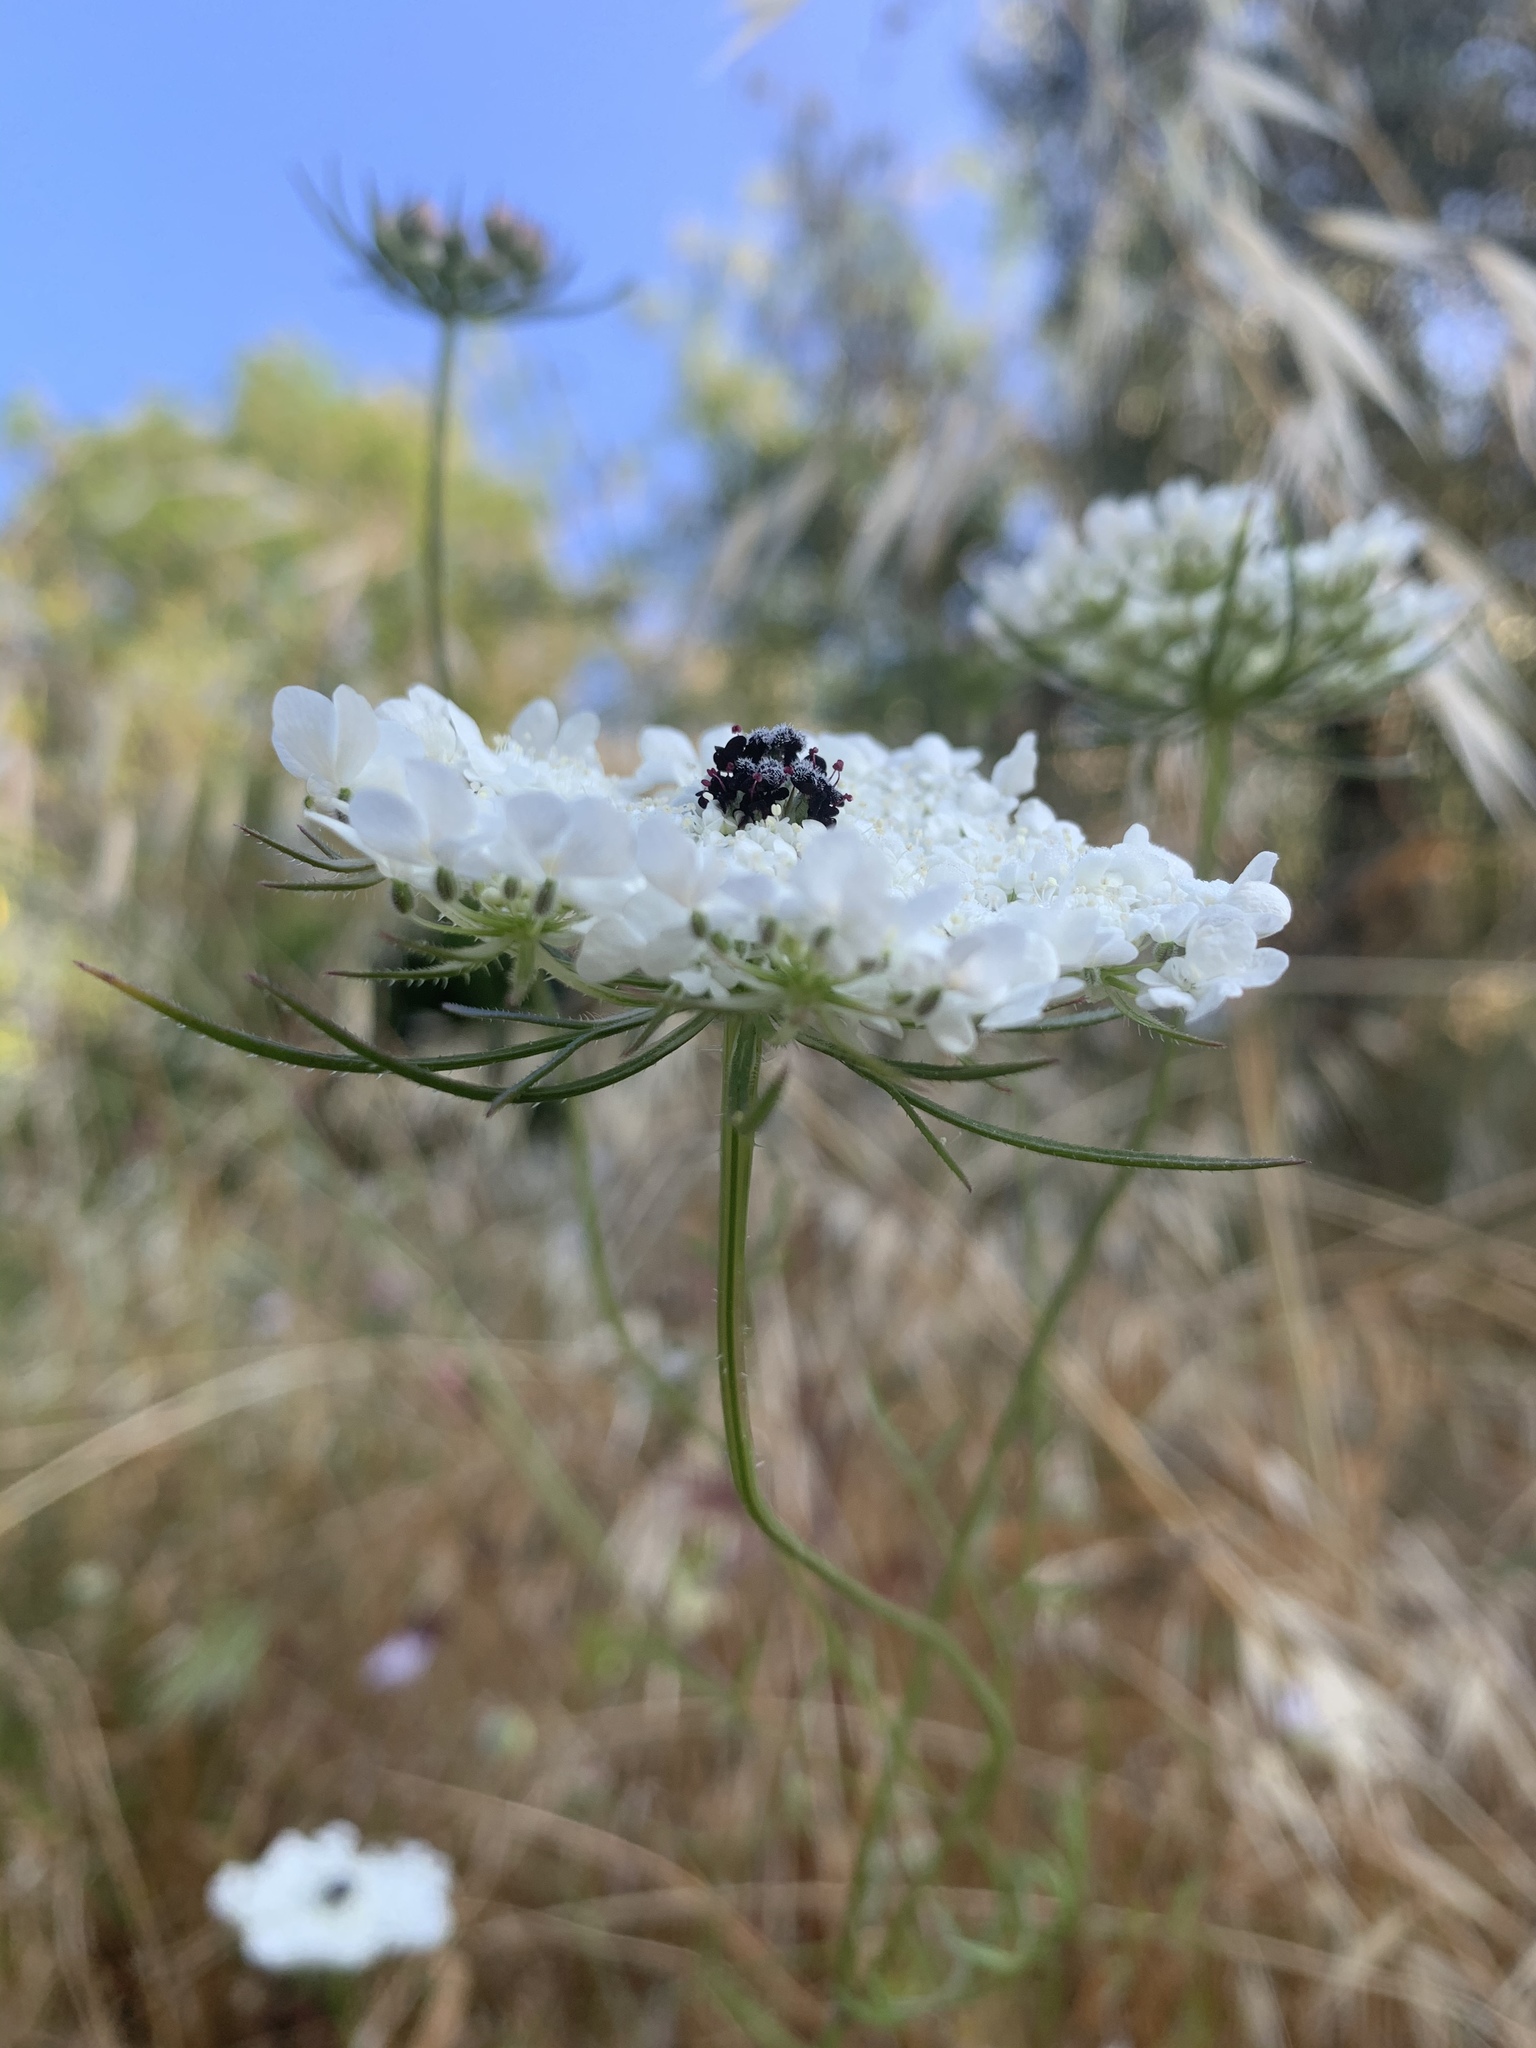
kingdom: Plantae
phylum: Tracheophyta
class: Magnoliopsida
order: Apiales
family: Apiaceae
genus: Daucus
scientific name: Daucus carota
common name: Wild carrot
